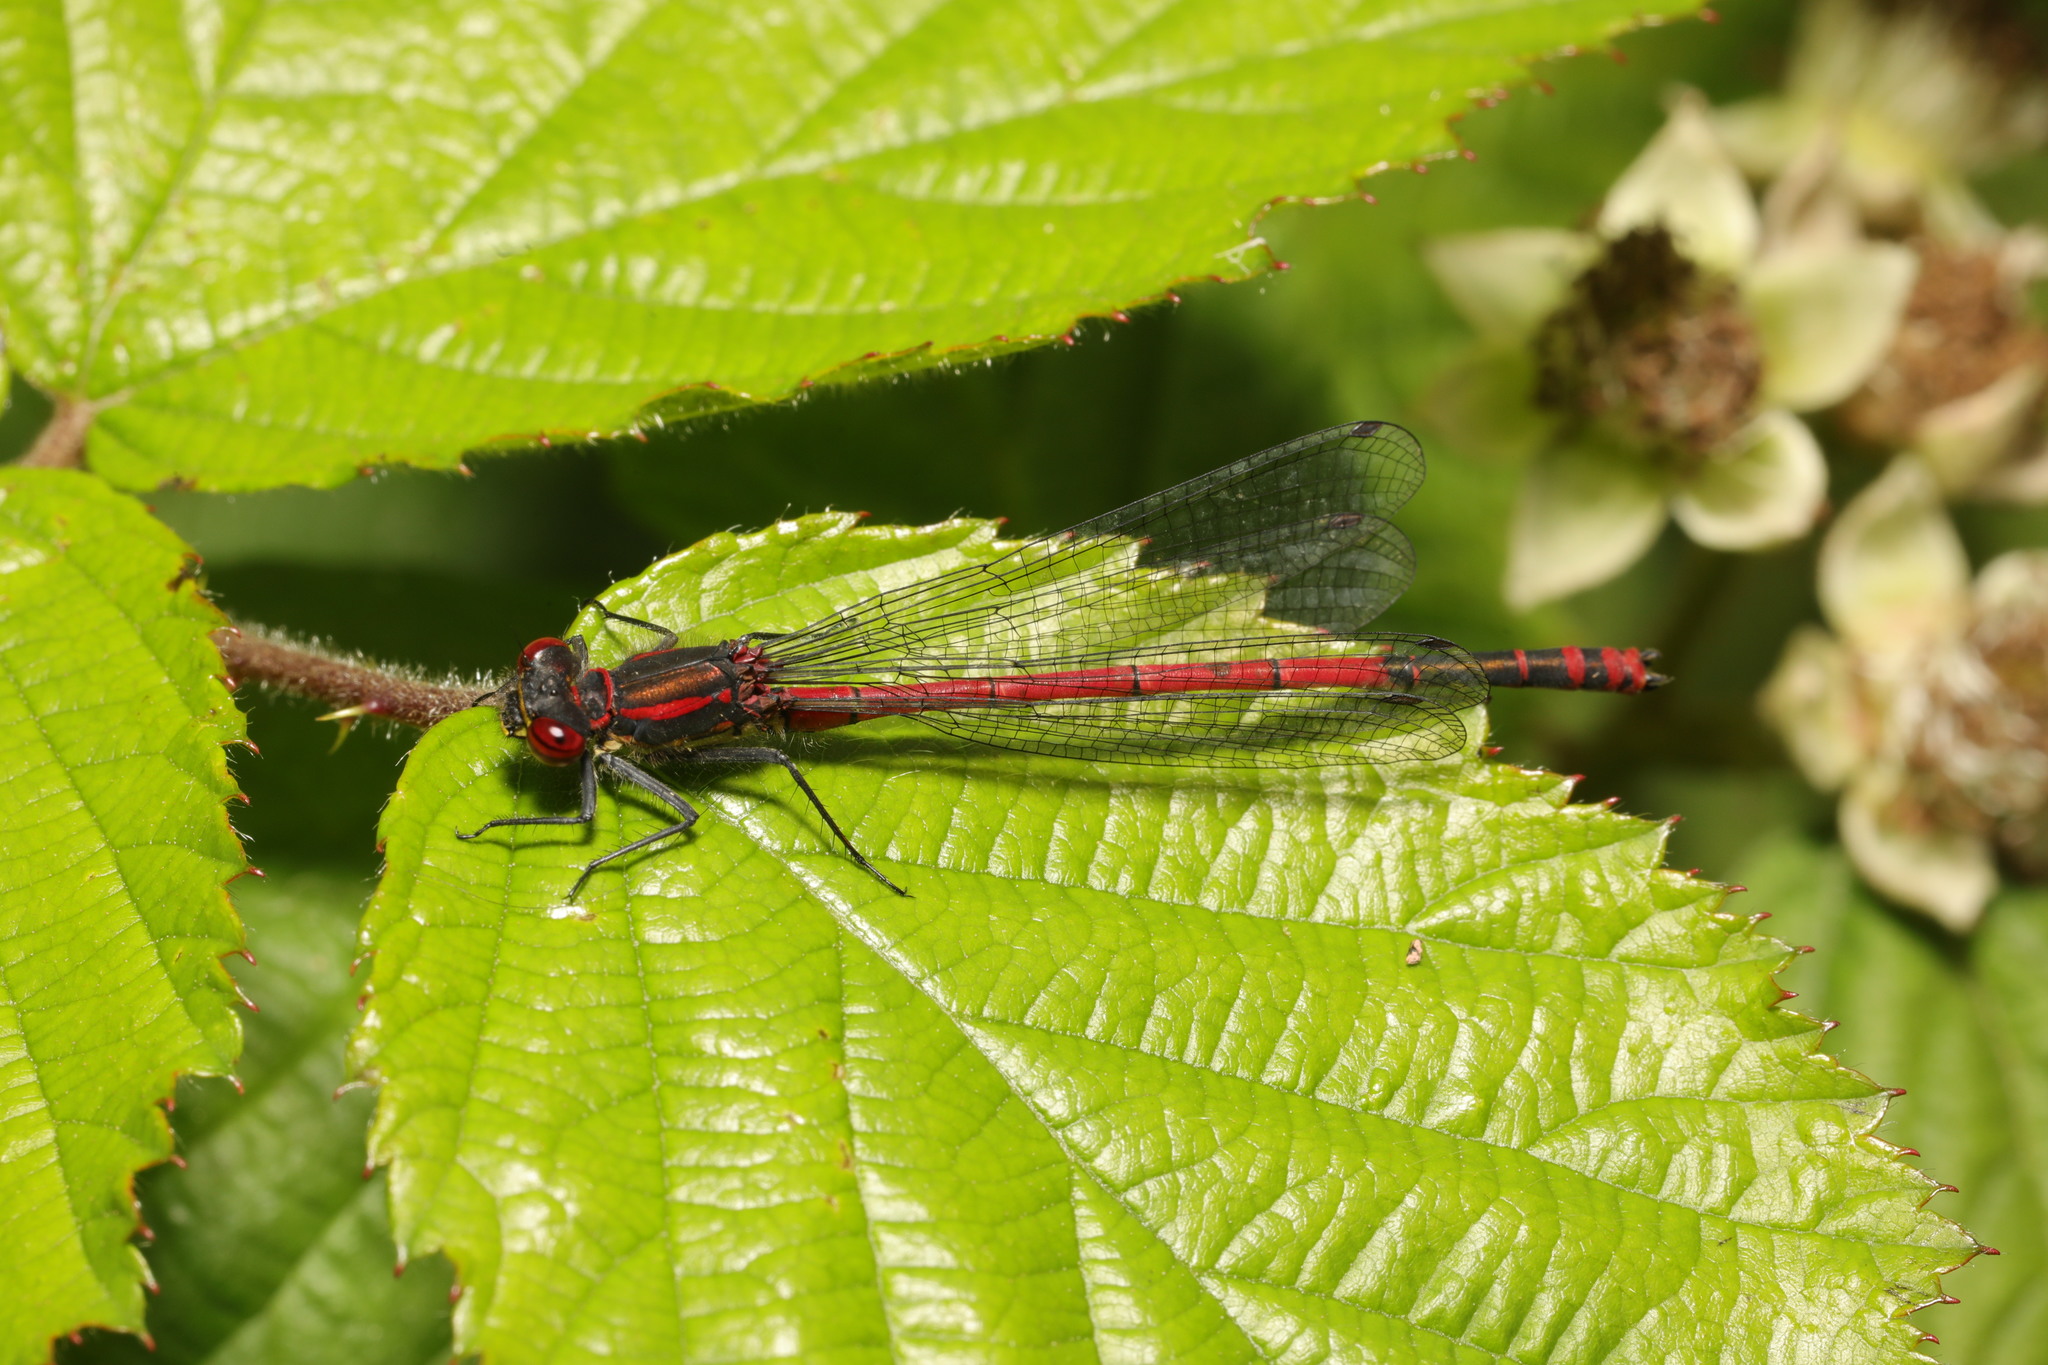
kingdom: Animalia
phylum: Arthropoda
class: Insecta
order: Odonata
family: Coenagrionidae
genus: Pyrrhosoma
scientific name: Pyrrhosoma nymphula
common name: Large red damsel
